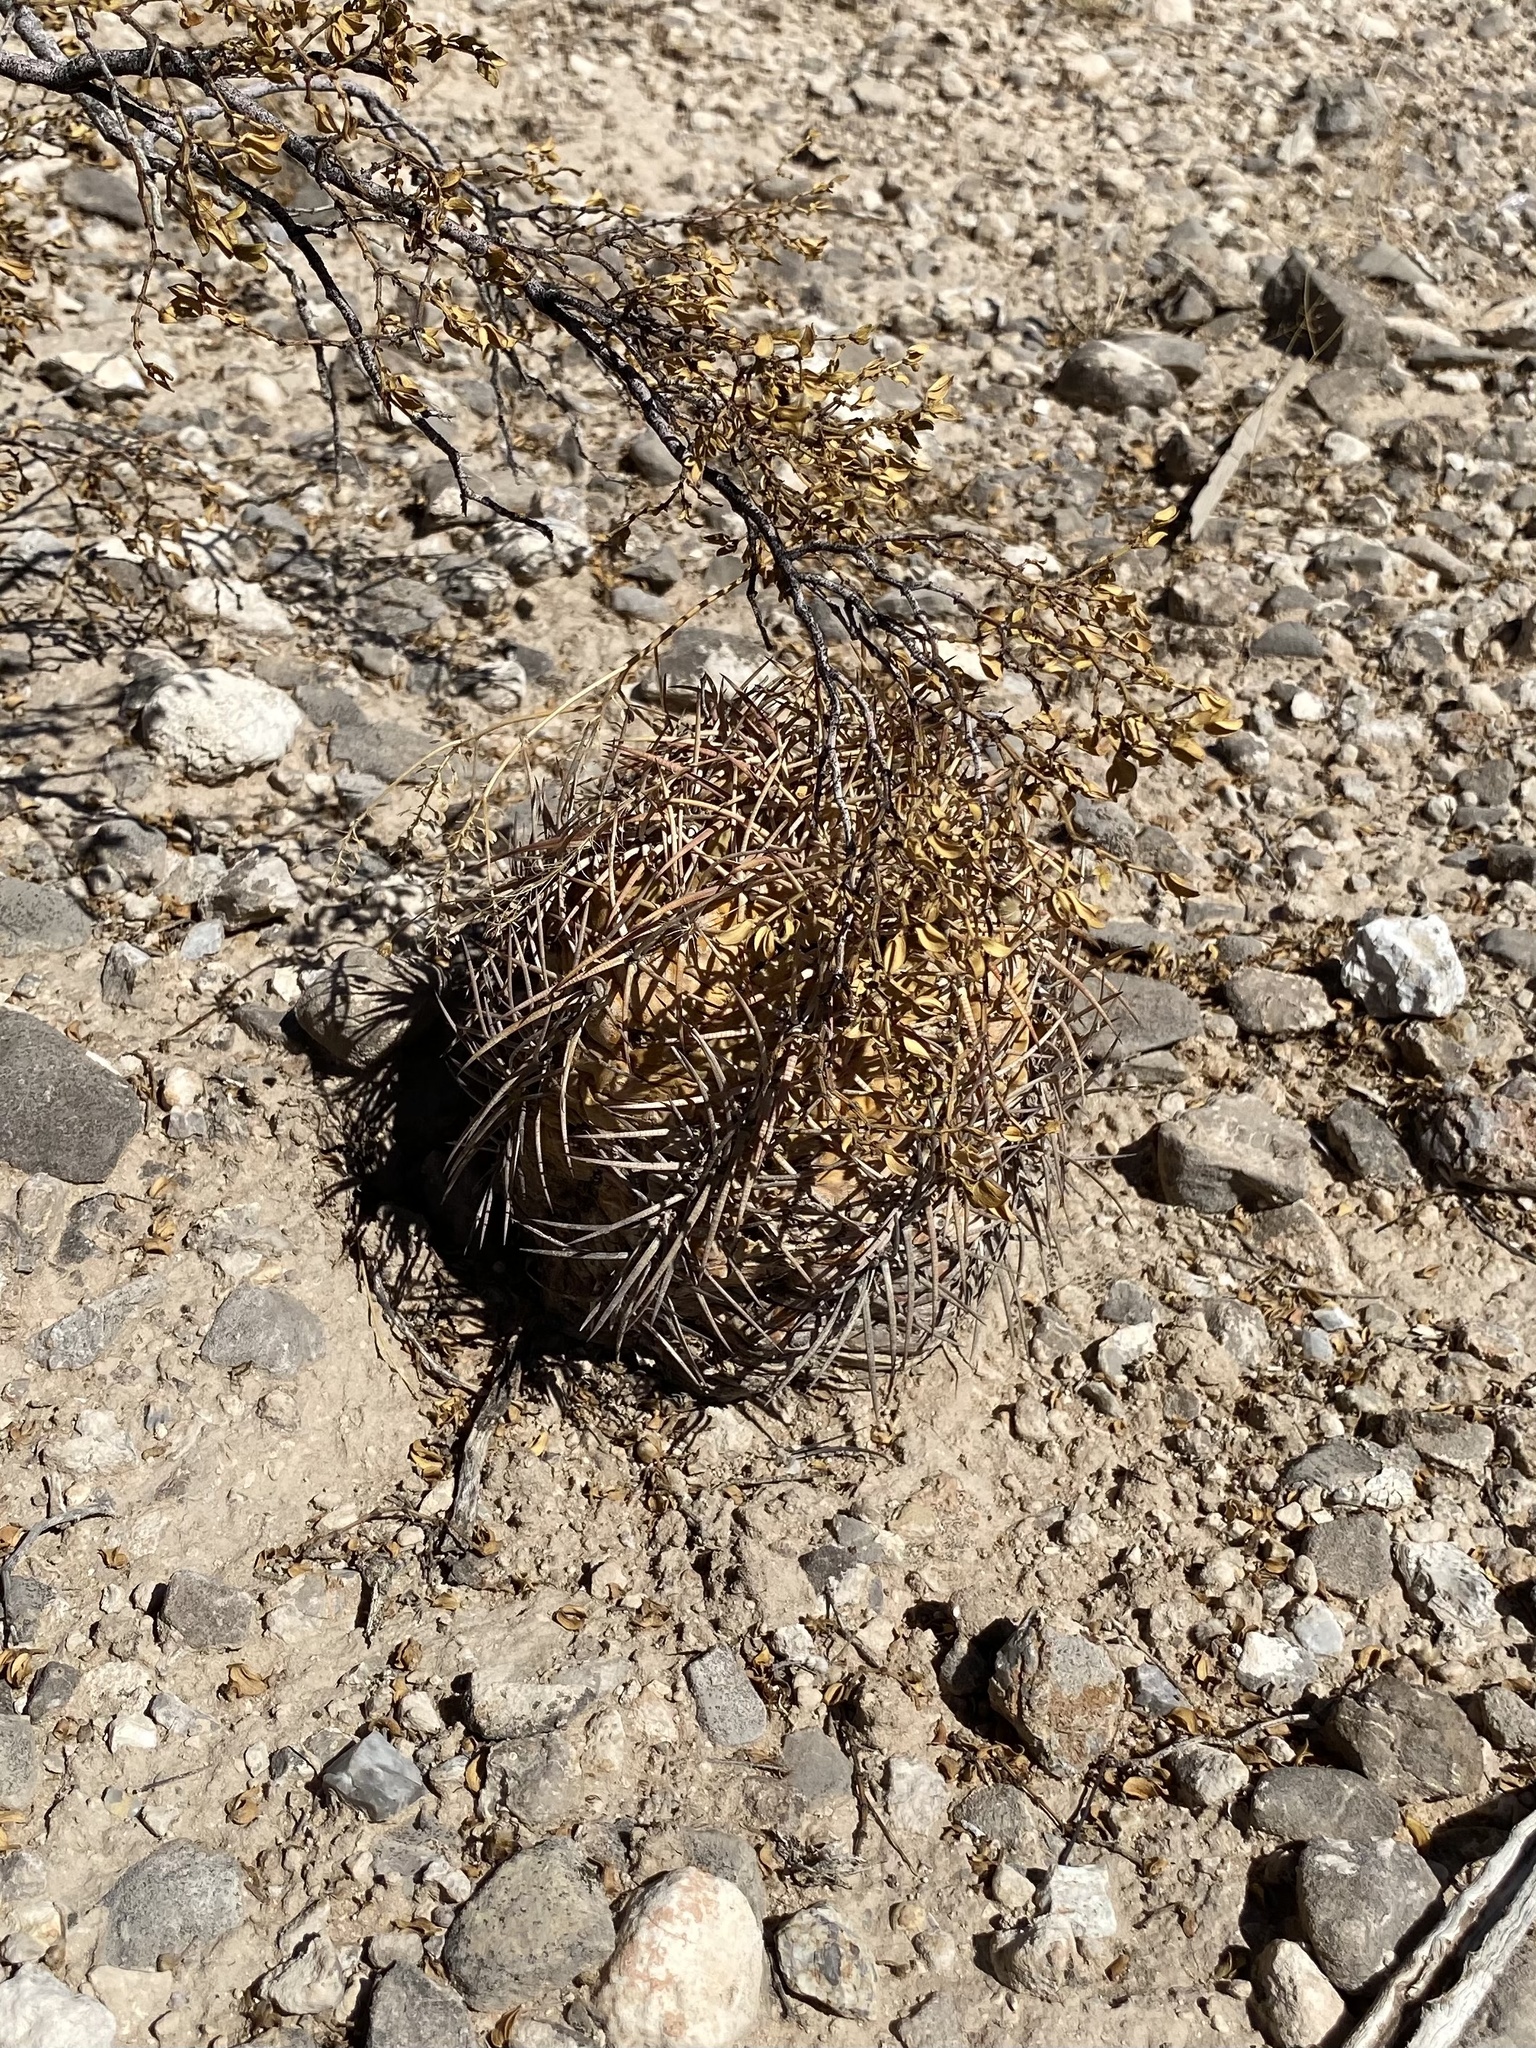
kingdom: Plantae
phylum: Tracheophyta
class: Magnoliopsida
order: Caryophyllales
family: Cactaceae
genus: Echinocactus
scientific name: Echinocactus horizonthalonius
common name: Devilshead
